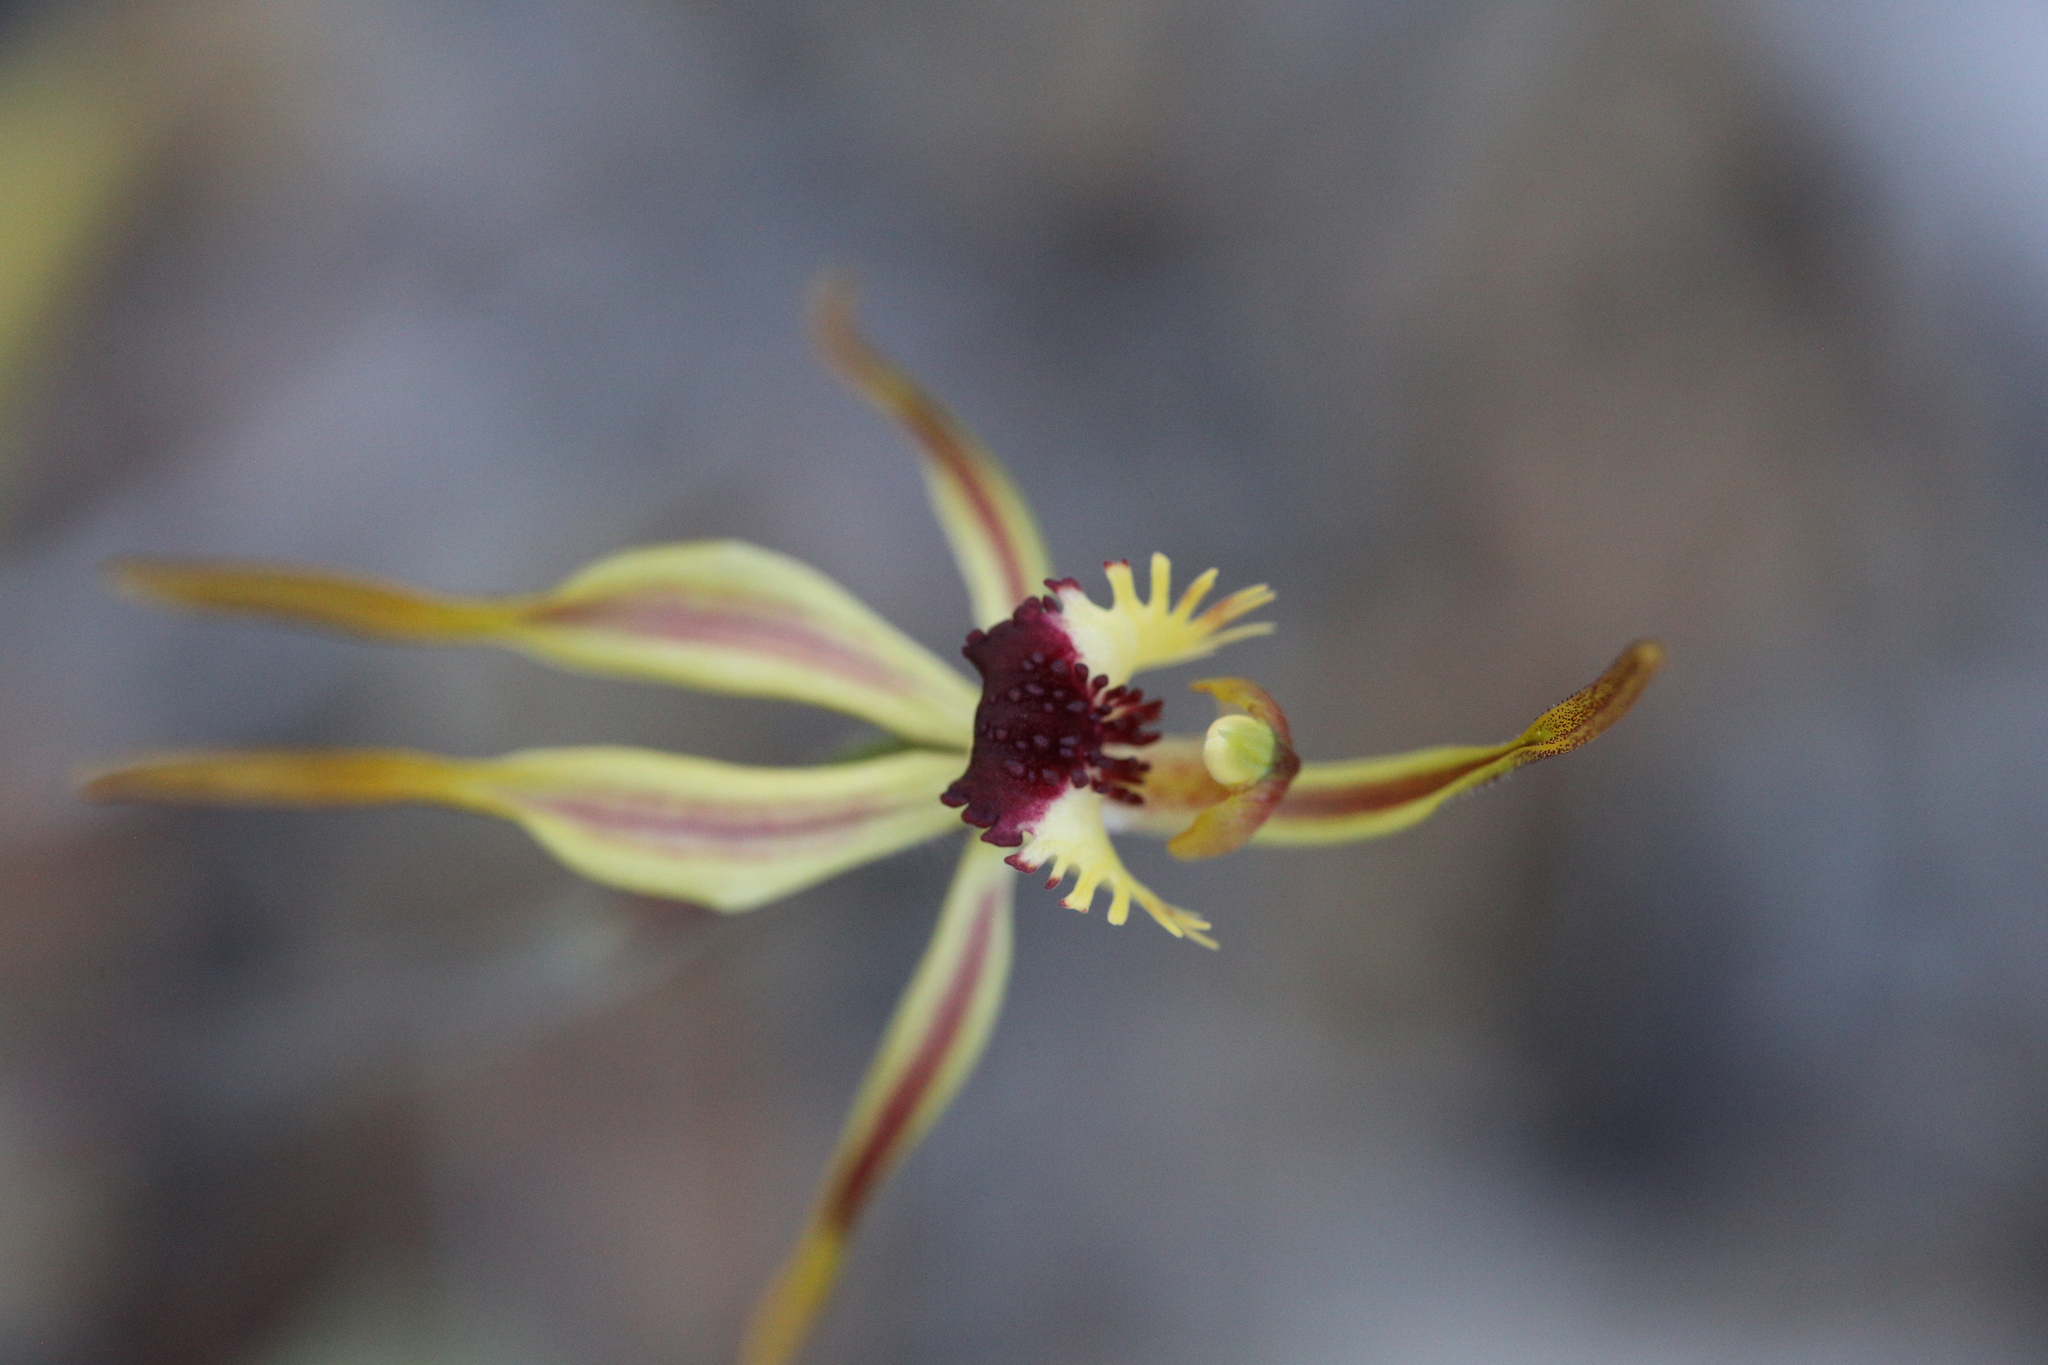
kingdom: Plantae
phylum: Tracheophyta
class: Liliopsida
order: Asparagales
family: Orchidaceae
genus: Caladenia
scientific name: Caladenia longiclavata
